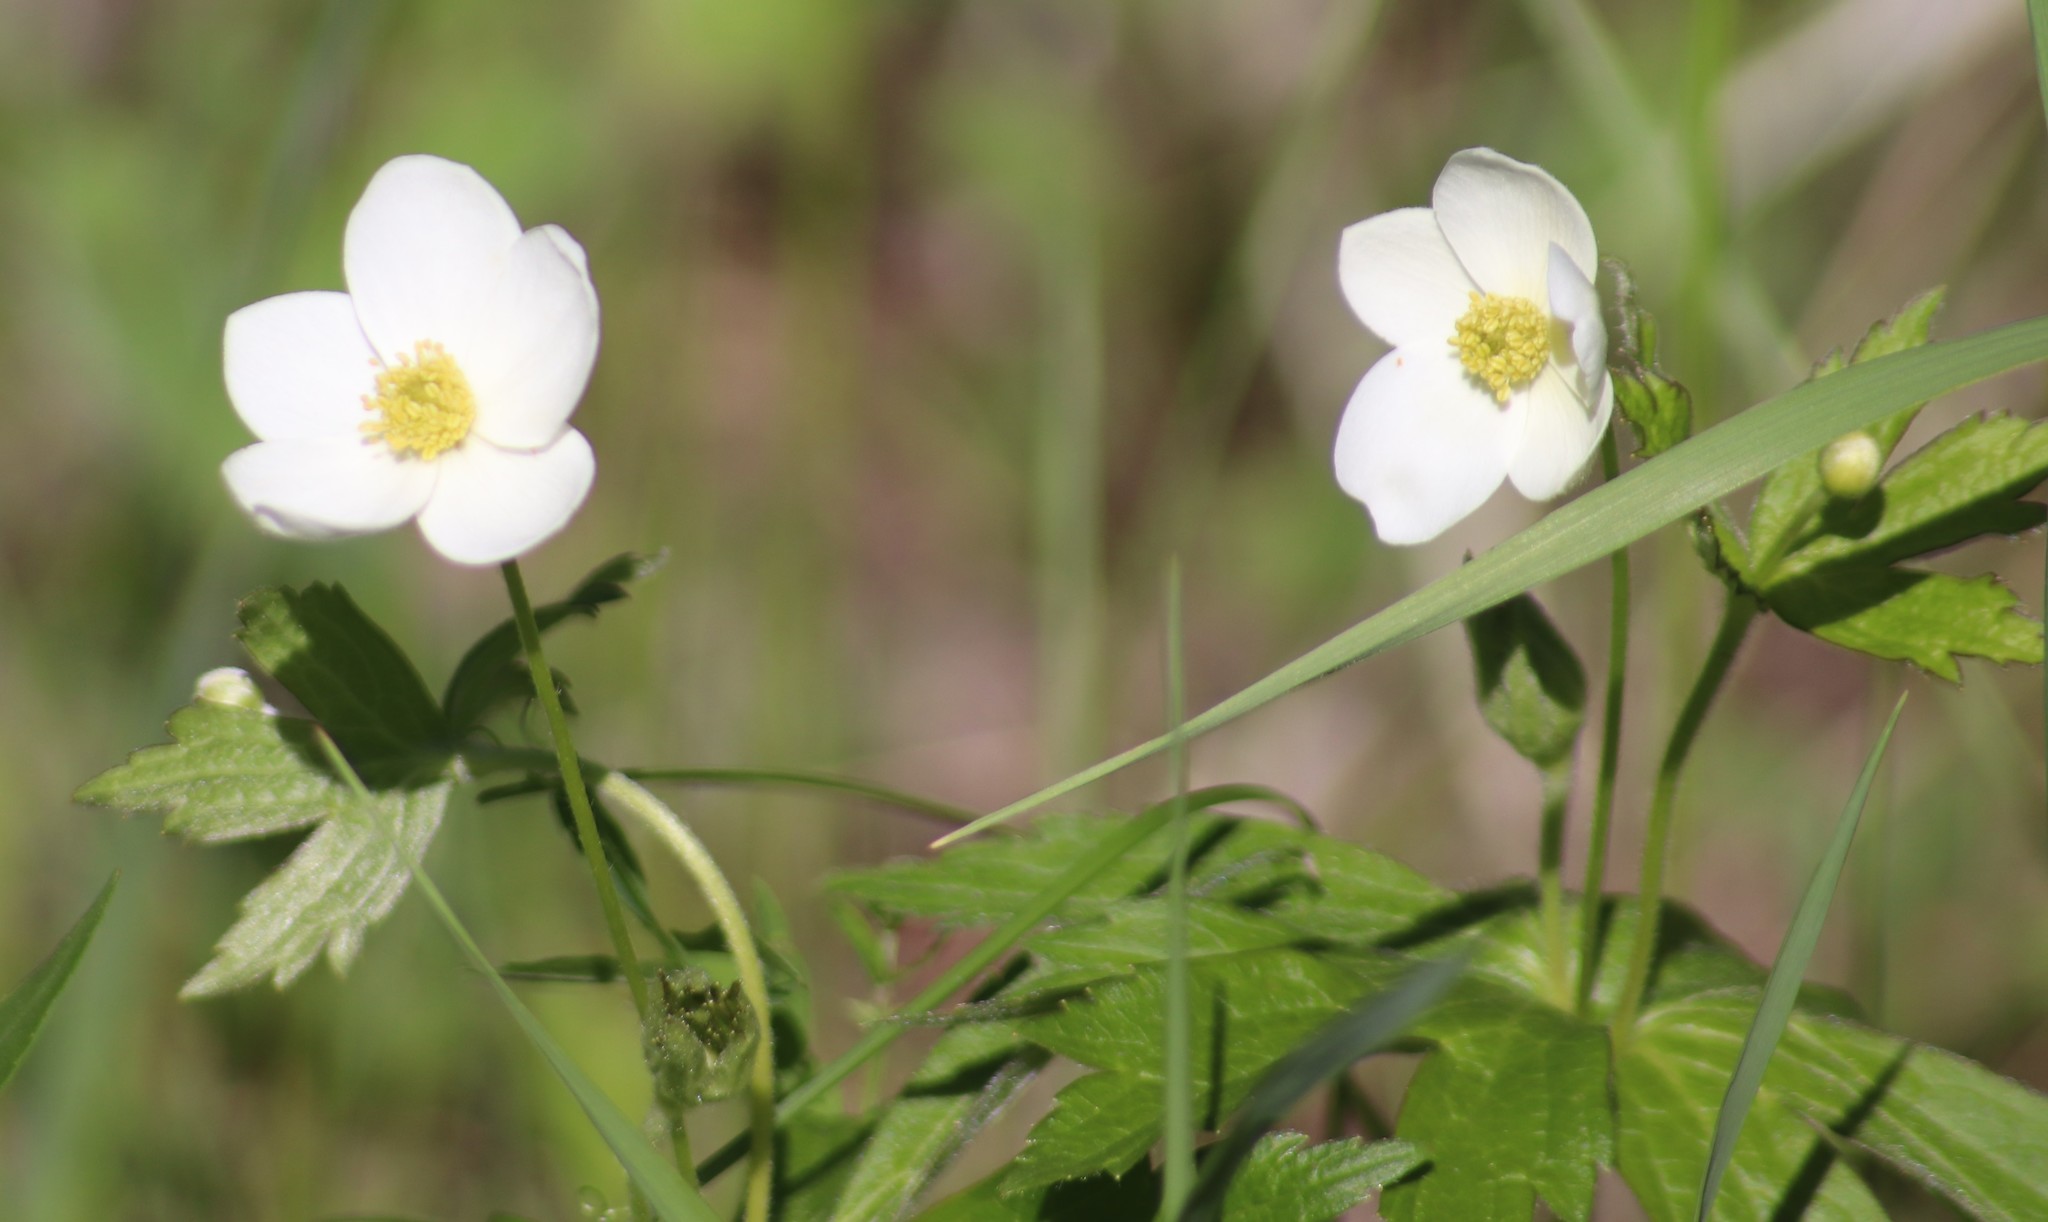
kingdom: Plantae
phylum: Tracheophyta
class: Magnoliopsida
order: Ranunculales
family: Ranunculaceae
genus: Anemonastrum
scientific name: Anemonastrum canadense
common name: Canada anemone
